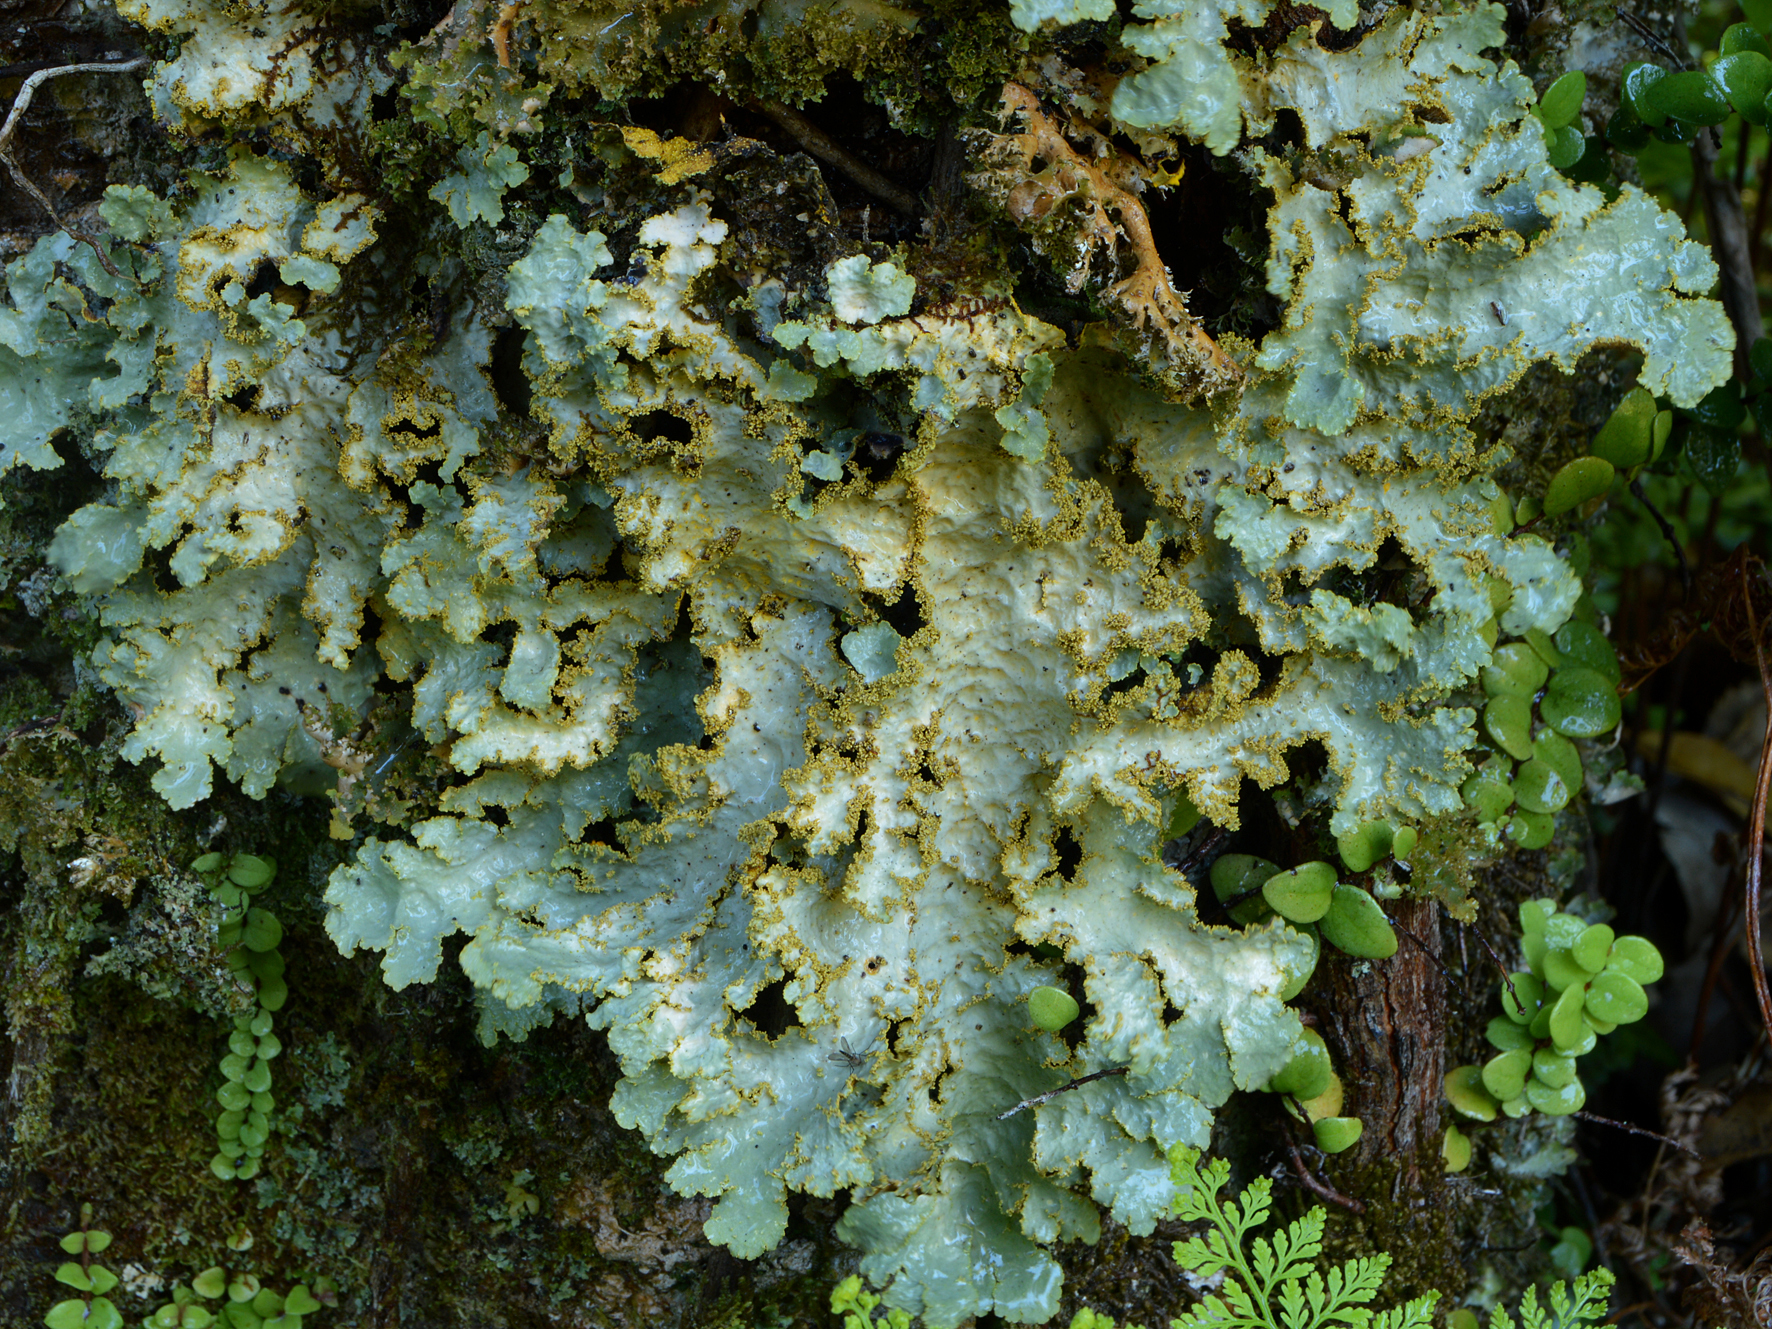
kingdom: Fungi
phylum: Ascomycota
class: Lecanoromycetes
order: Peltigerales
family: Lobariaceae
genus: Yarrumia
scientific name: Yarrumia colensoi
